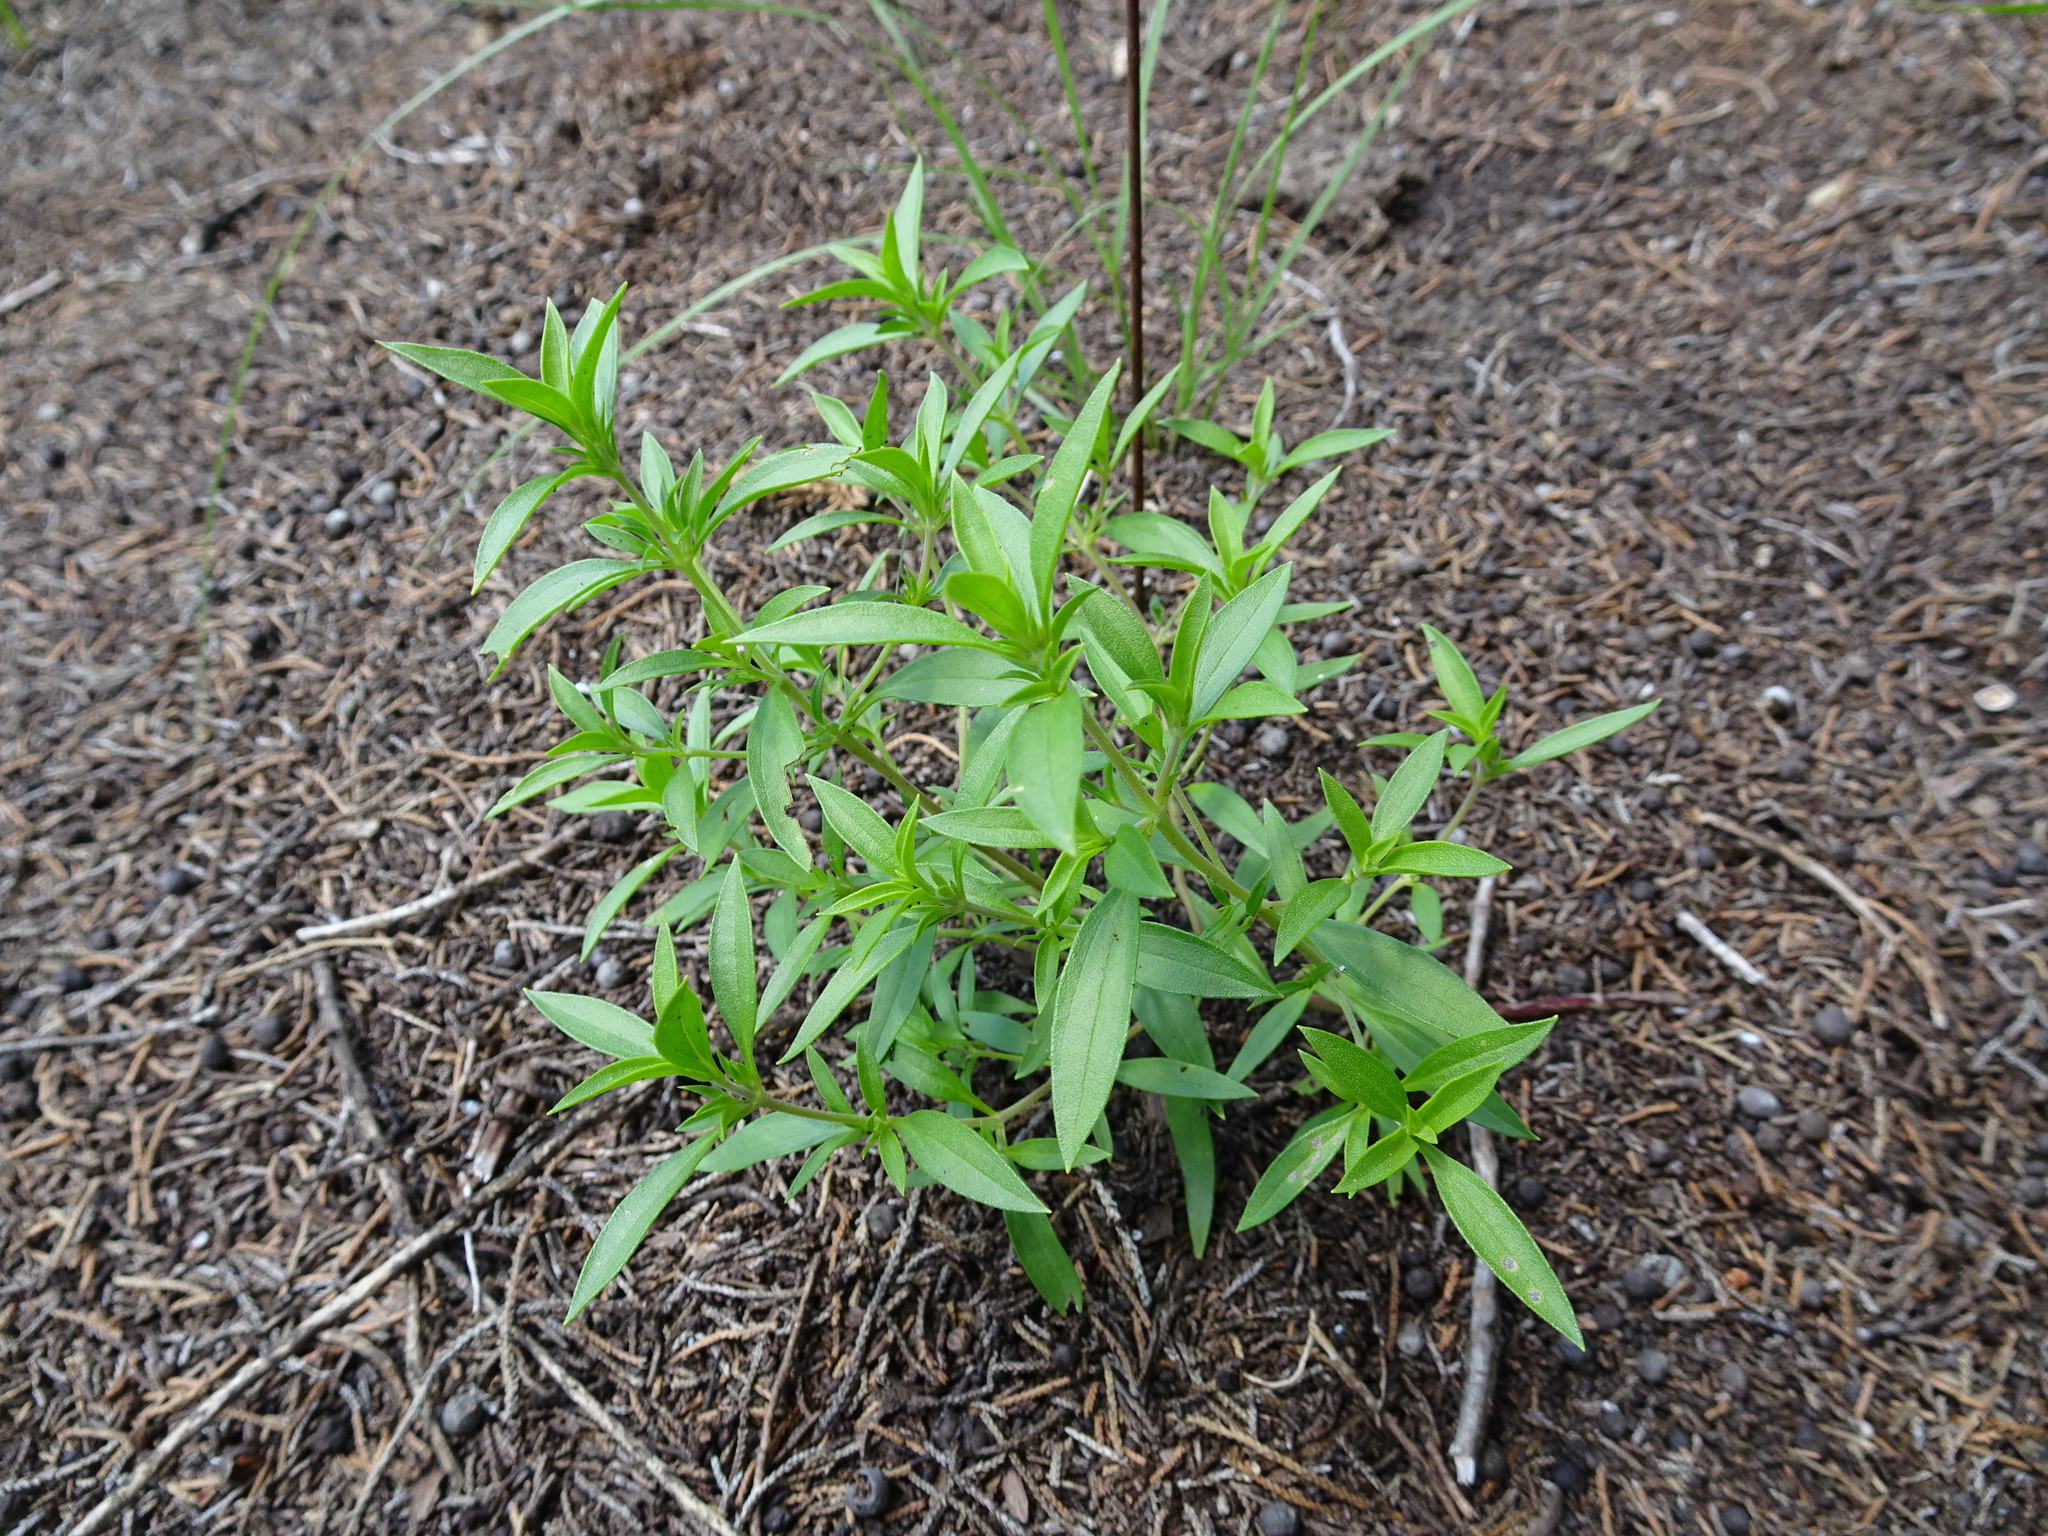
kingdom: Plantae
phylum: Tracheophyta
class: Magnoliopsida
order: Lamiales
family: Lamiaceae
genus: Trichostema
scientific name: Trichostema brachiatum
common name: False pennyroyal
